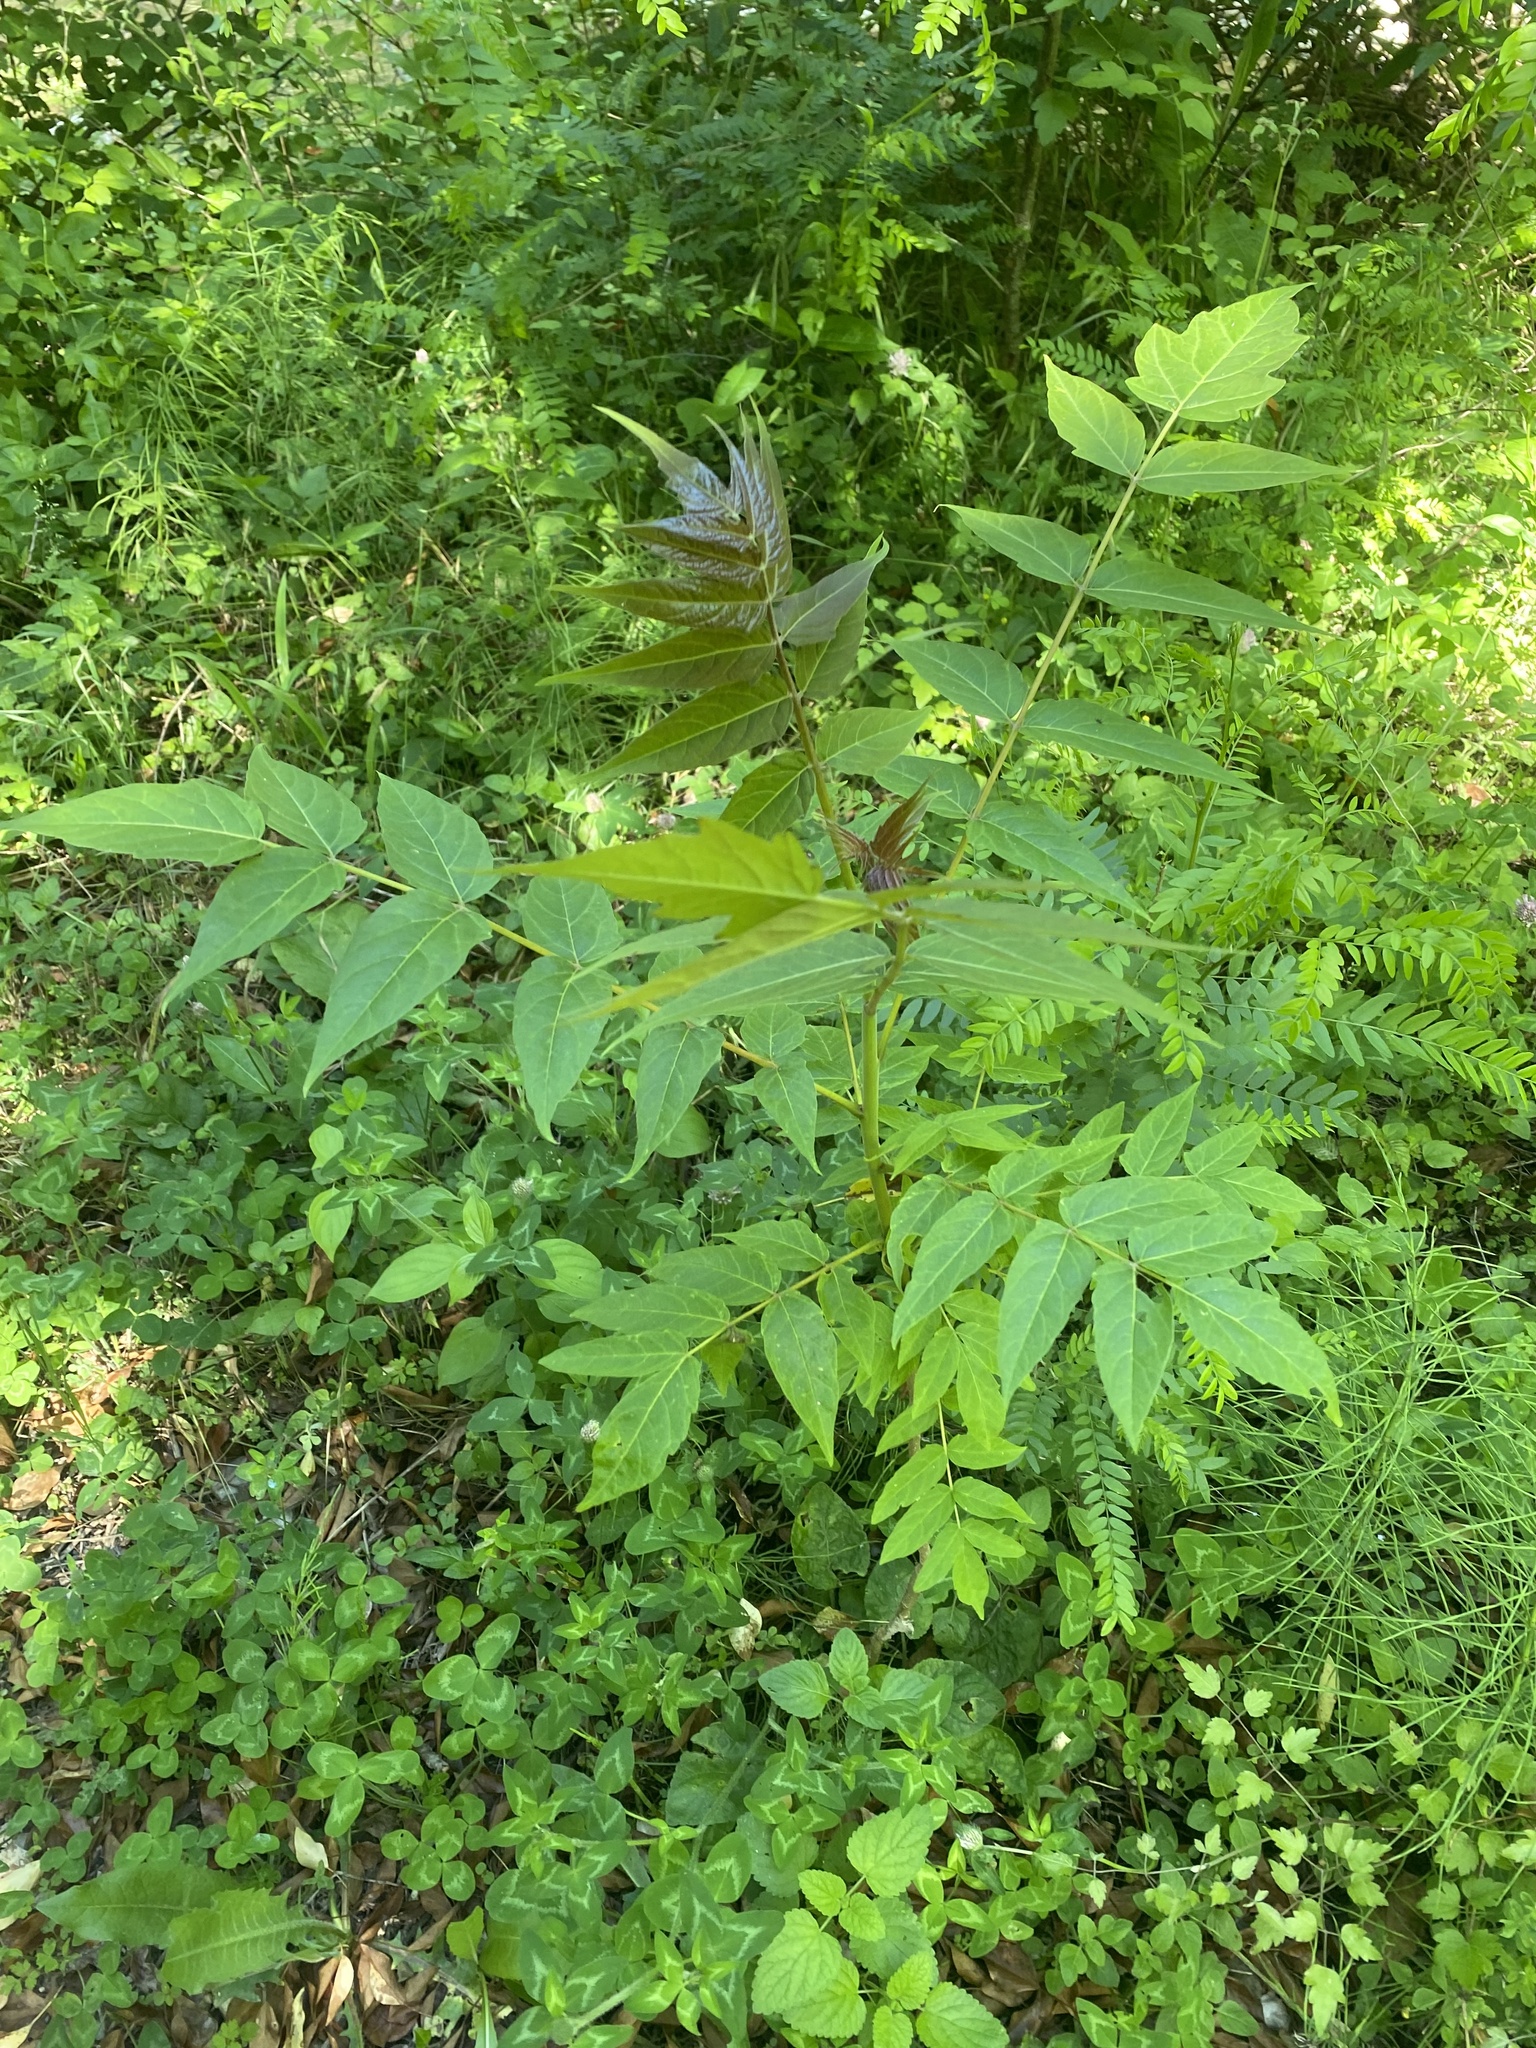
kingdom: Plantae
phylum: Tracheophyta
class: Magnoliopsida
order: Sapindales
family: Simaroubaceae
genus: Ailanthus
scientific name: Ailanthus altissima
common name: Tree-of-heaven
